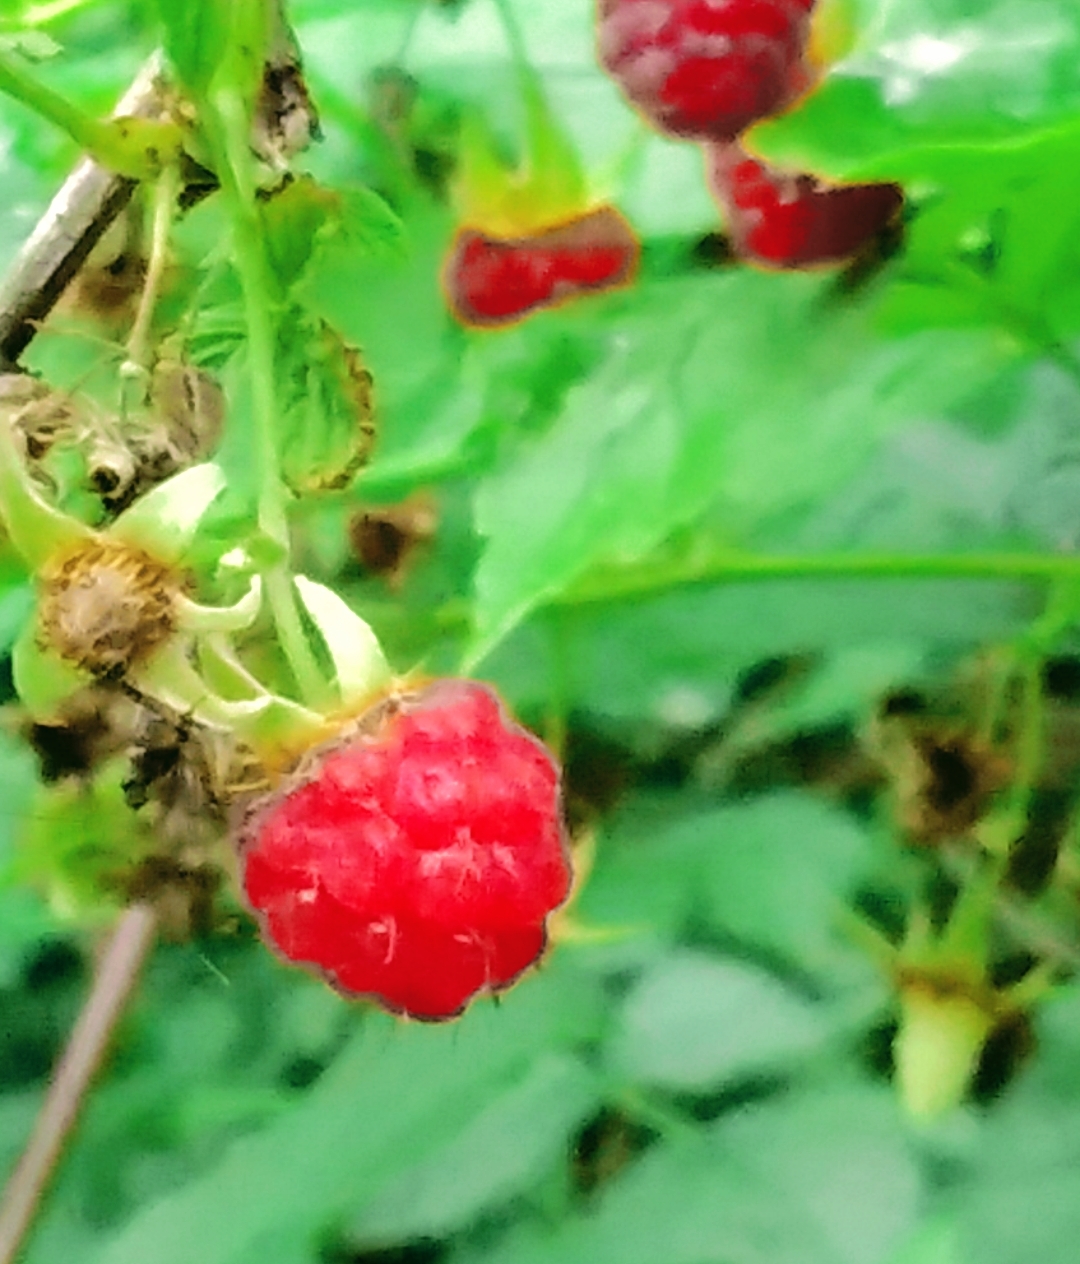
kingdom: Plantae
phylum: Tracheophyta
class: Magnoliopsida
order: Rosales
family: Rosaceae
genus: Rubus
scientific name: Rubus idaeus
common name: Raspberry
